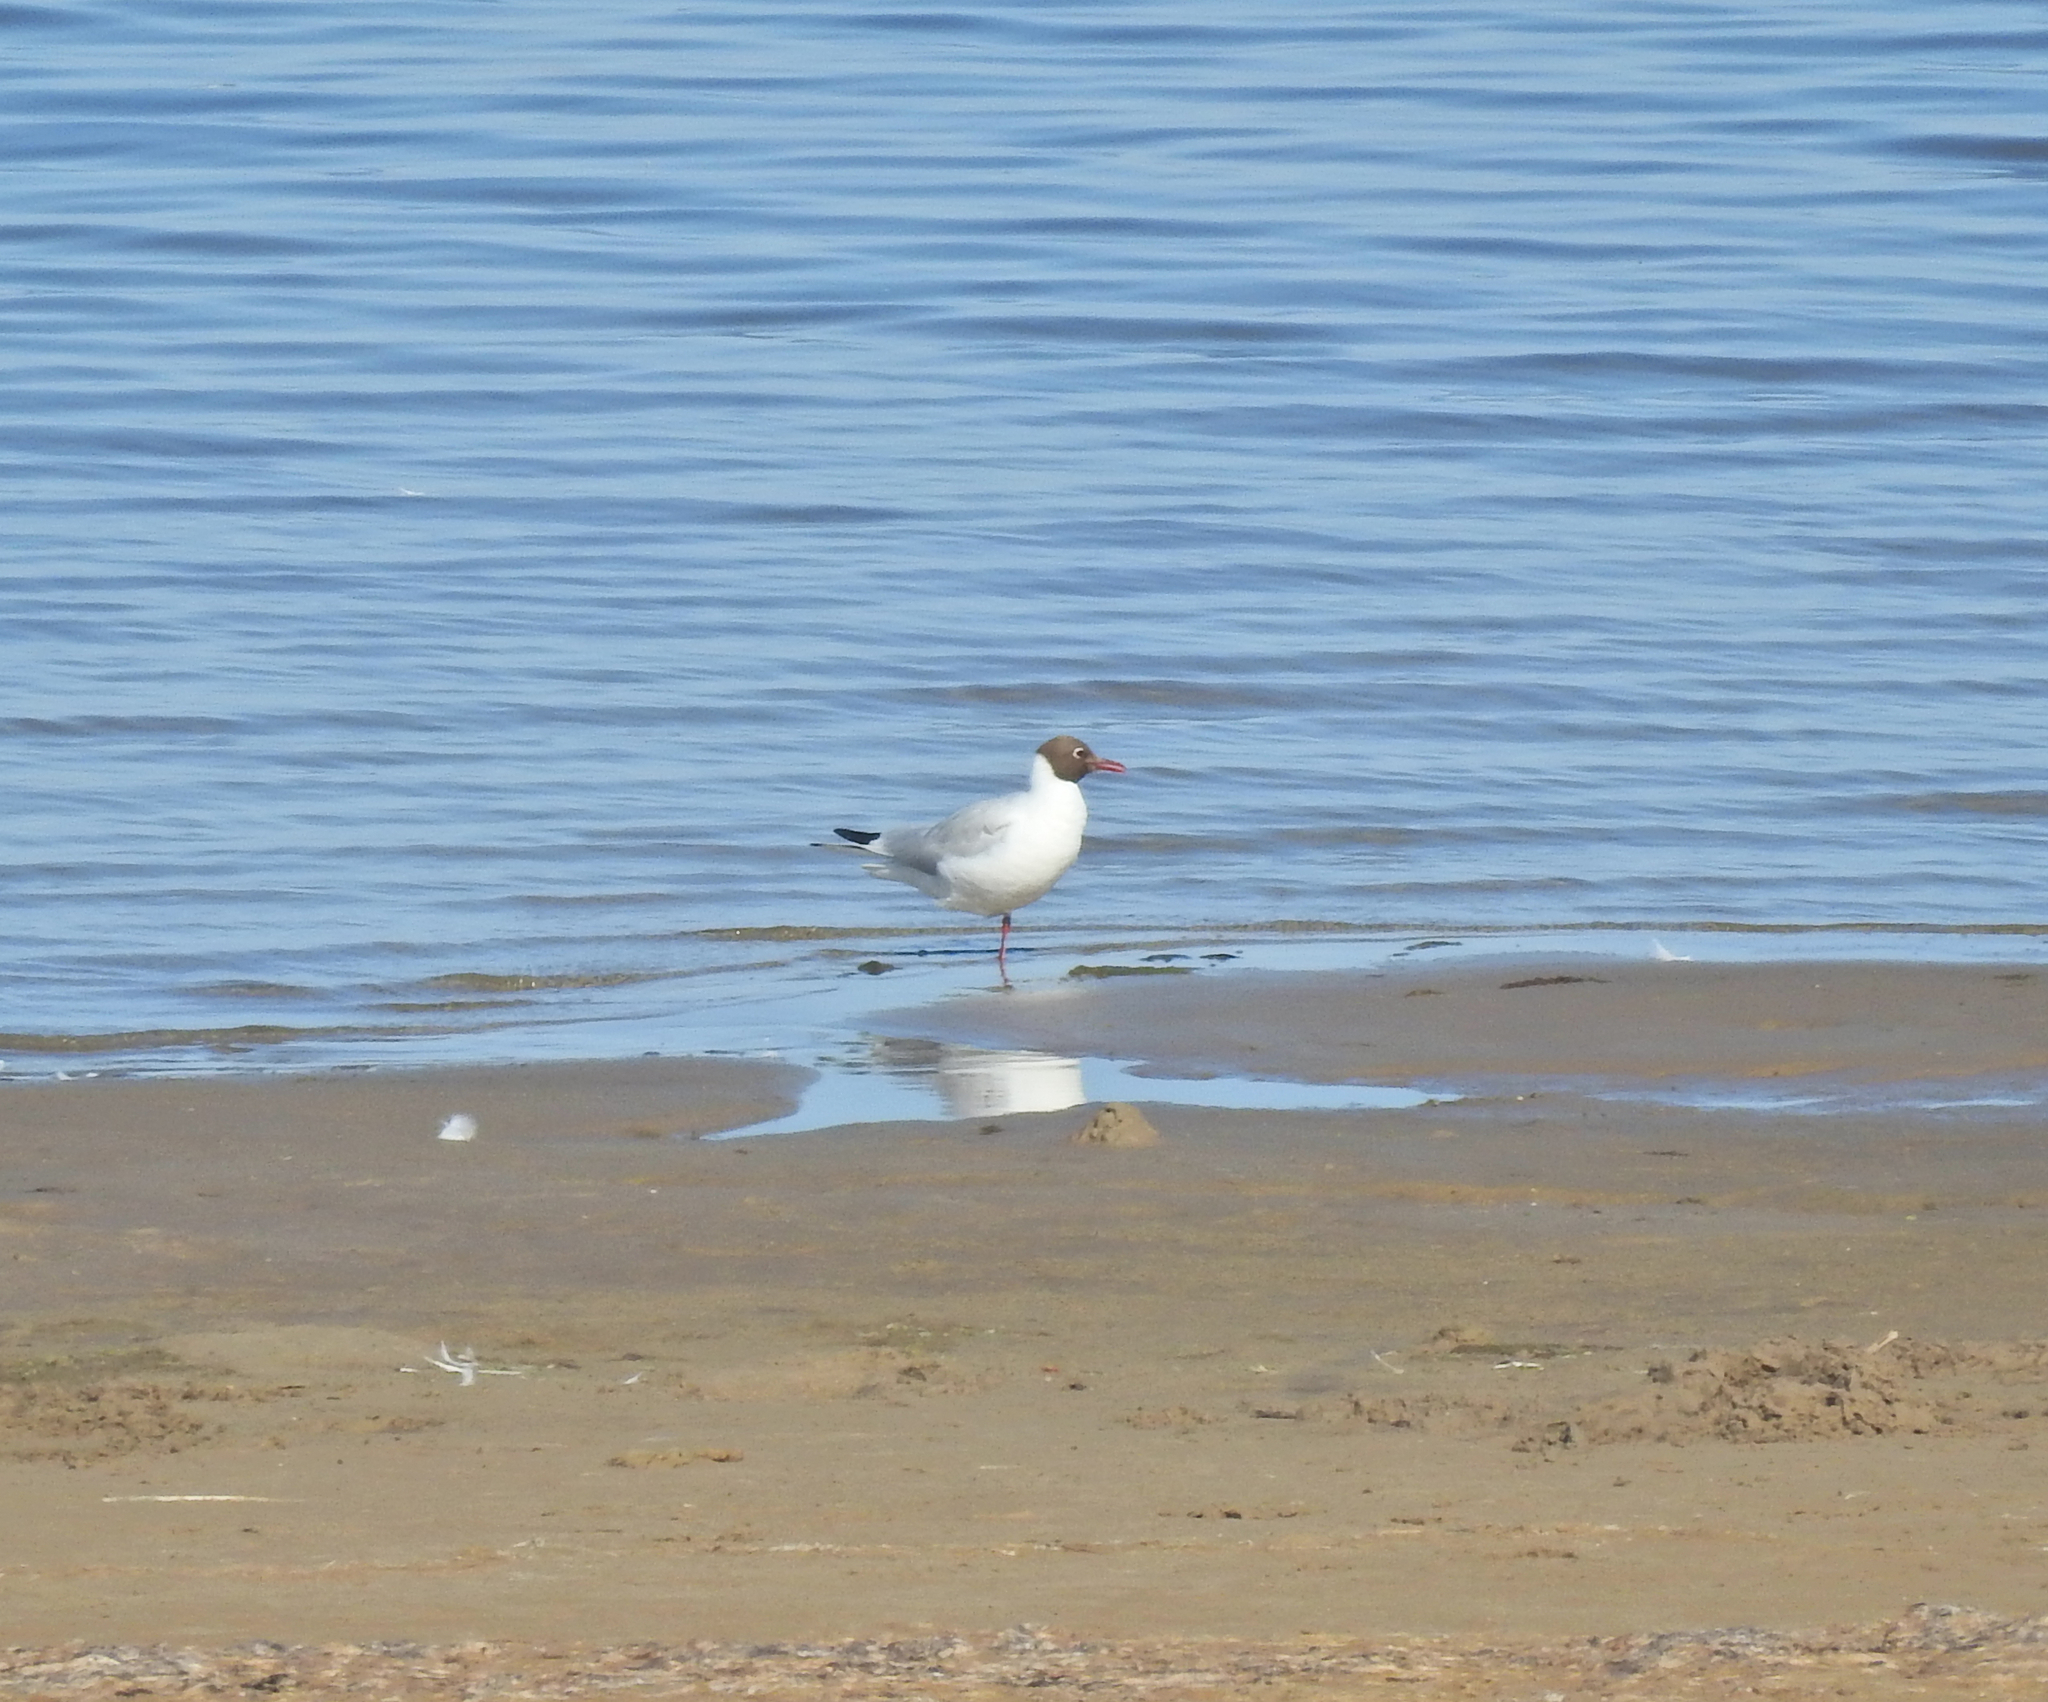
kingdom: Animalia
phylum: Chordata
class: Aves
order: Charadriiformes
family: Laridae
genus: Chroicocephalus
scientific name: Chroicocephalus ridibundus
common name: Black-headed gull
